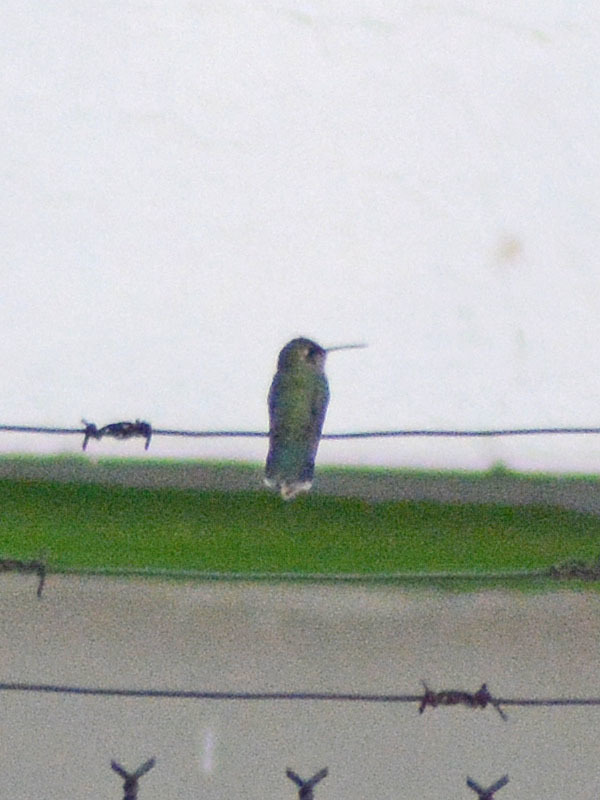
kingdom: Animalia
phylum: Chordata
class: Aves
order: Apodiformes
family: Trochilidae
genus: Cynanthus
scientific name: Cynanthus latirostris
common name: Broad-billed hummingbird
